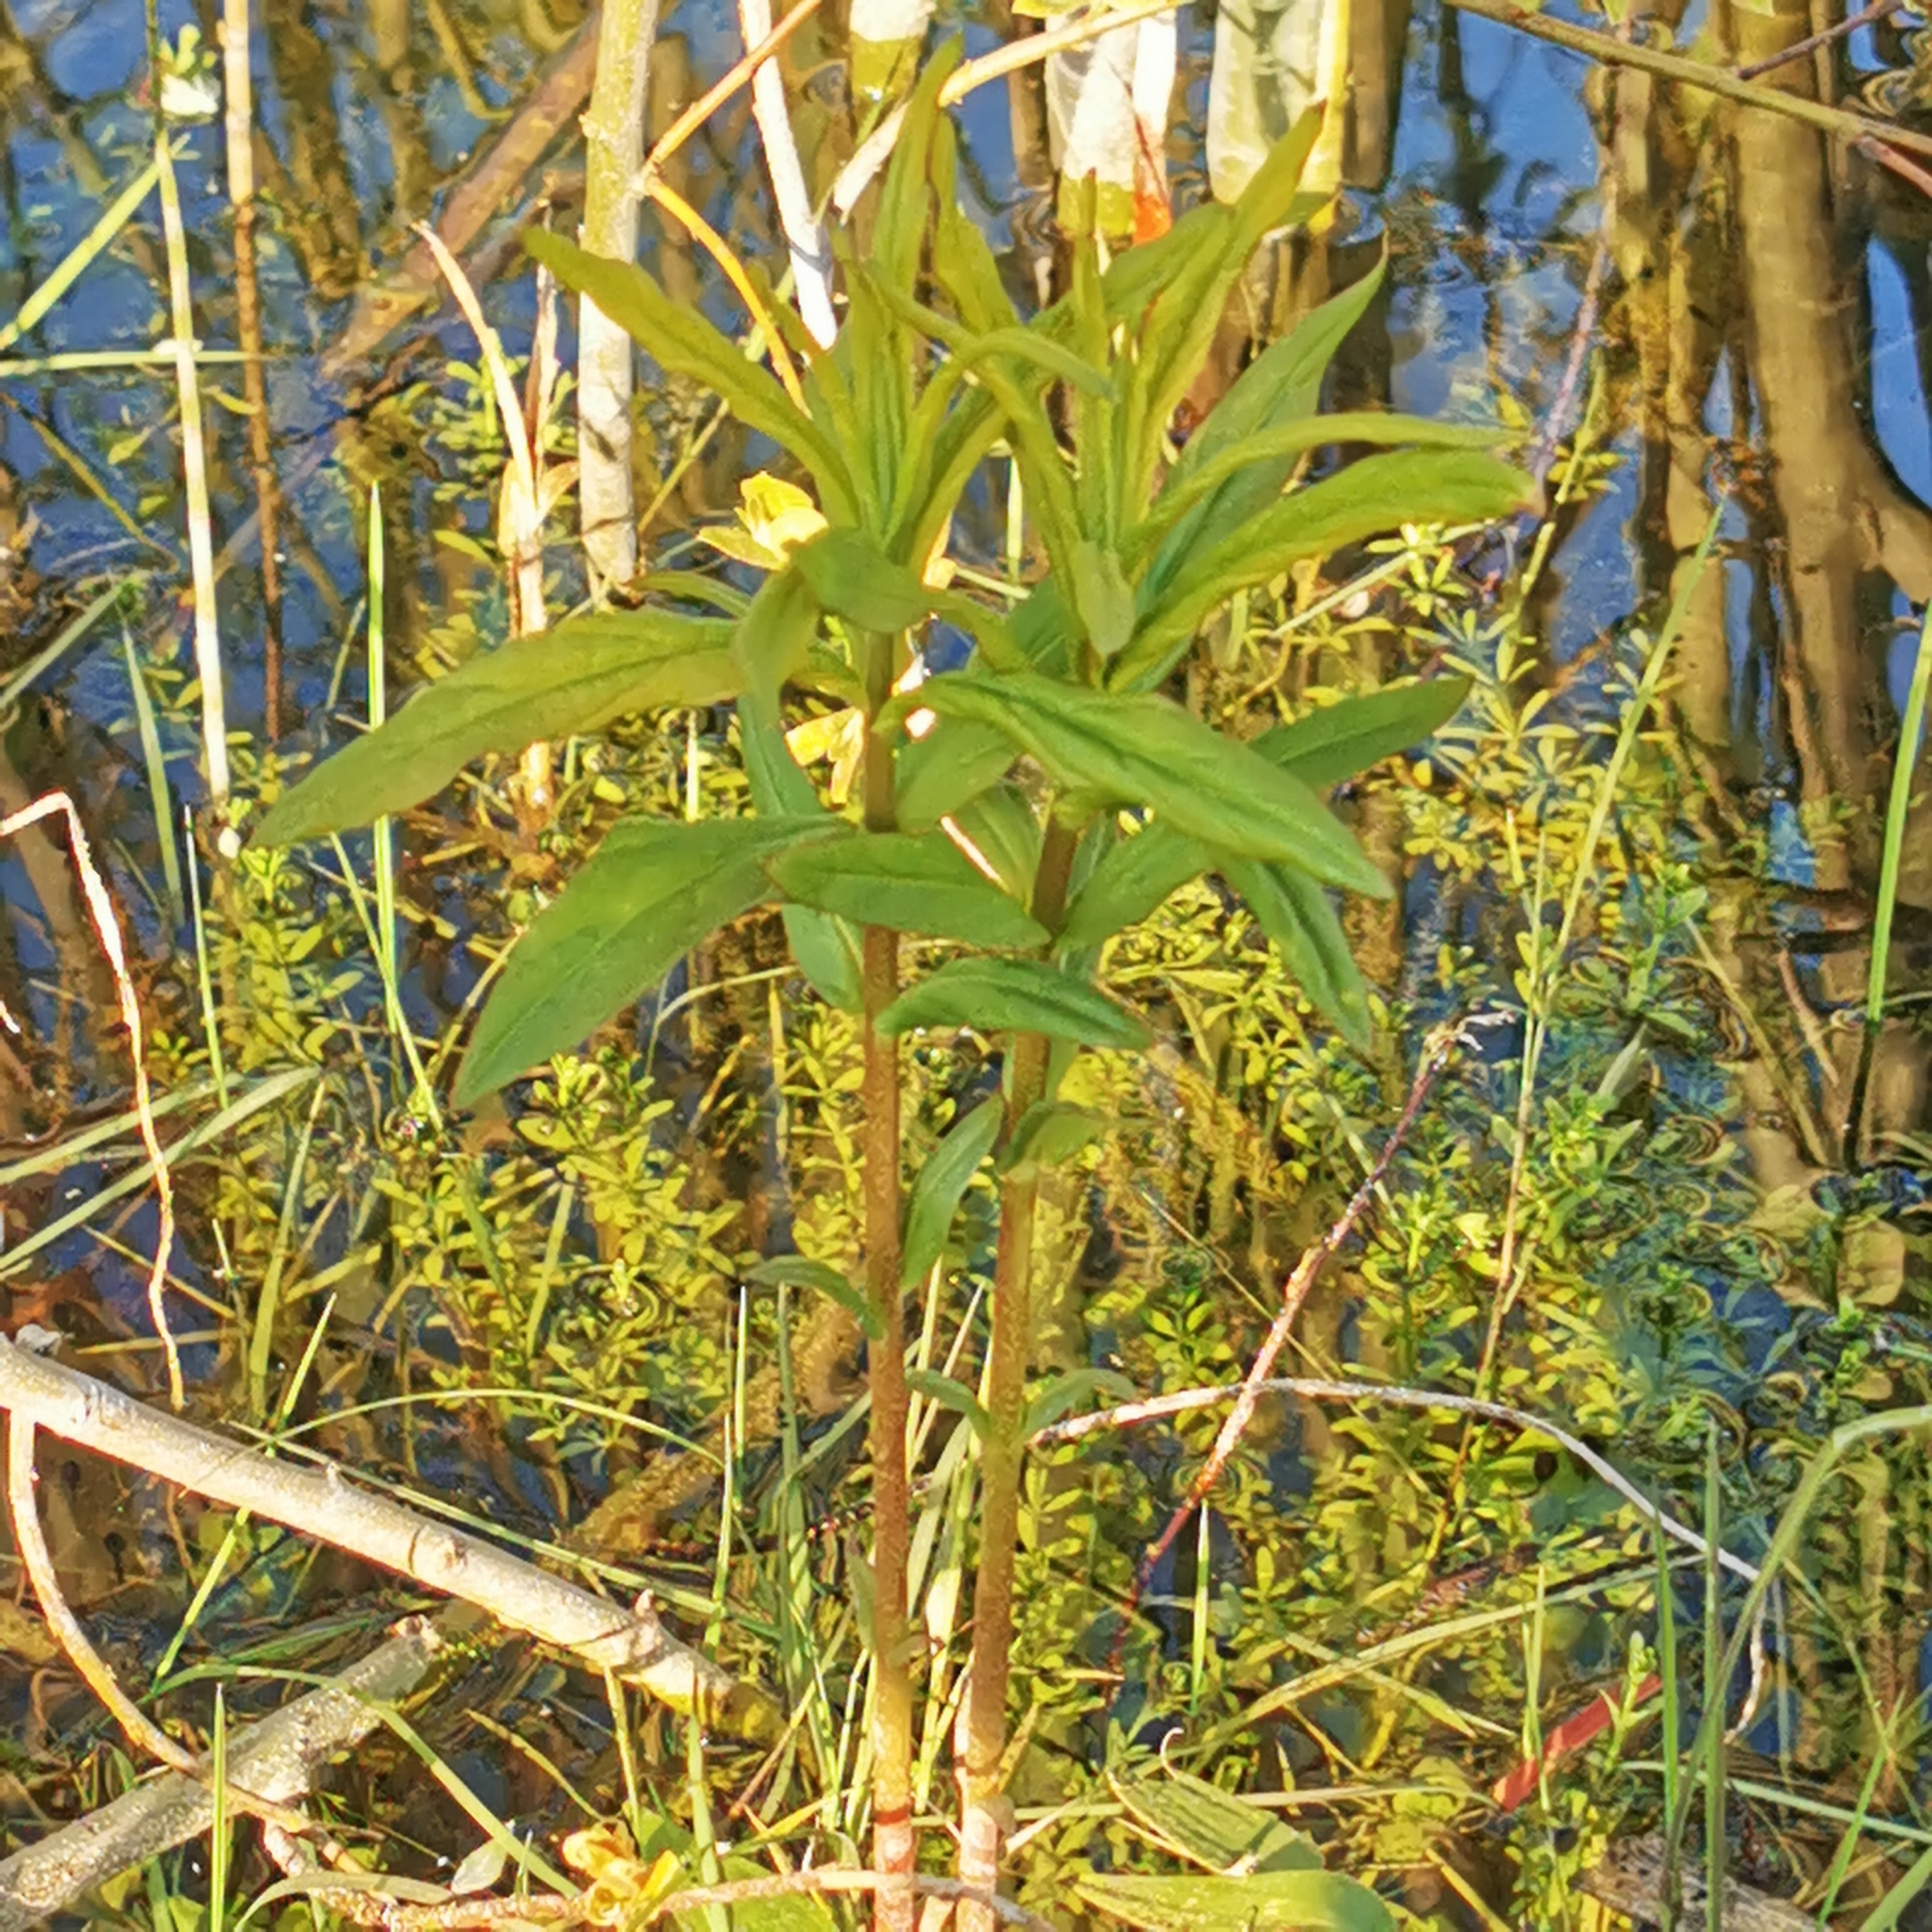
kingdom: Plantae
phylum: Tracheophyta
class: Magnoliopsida
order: Ericales
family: Primulaceae
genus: Lysimachia
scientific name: Lysimachia thyrsiflora
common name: Tufted loosestrife
